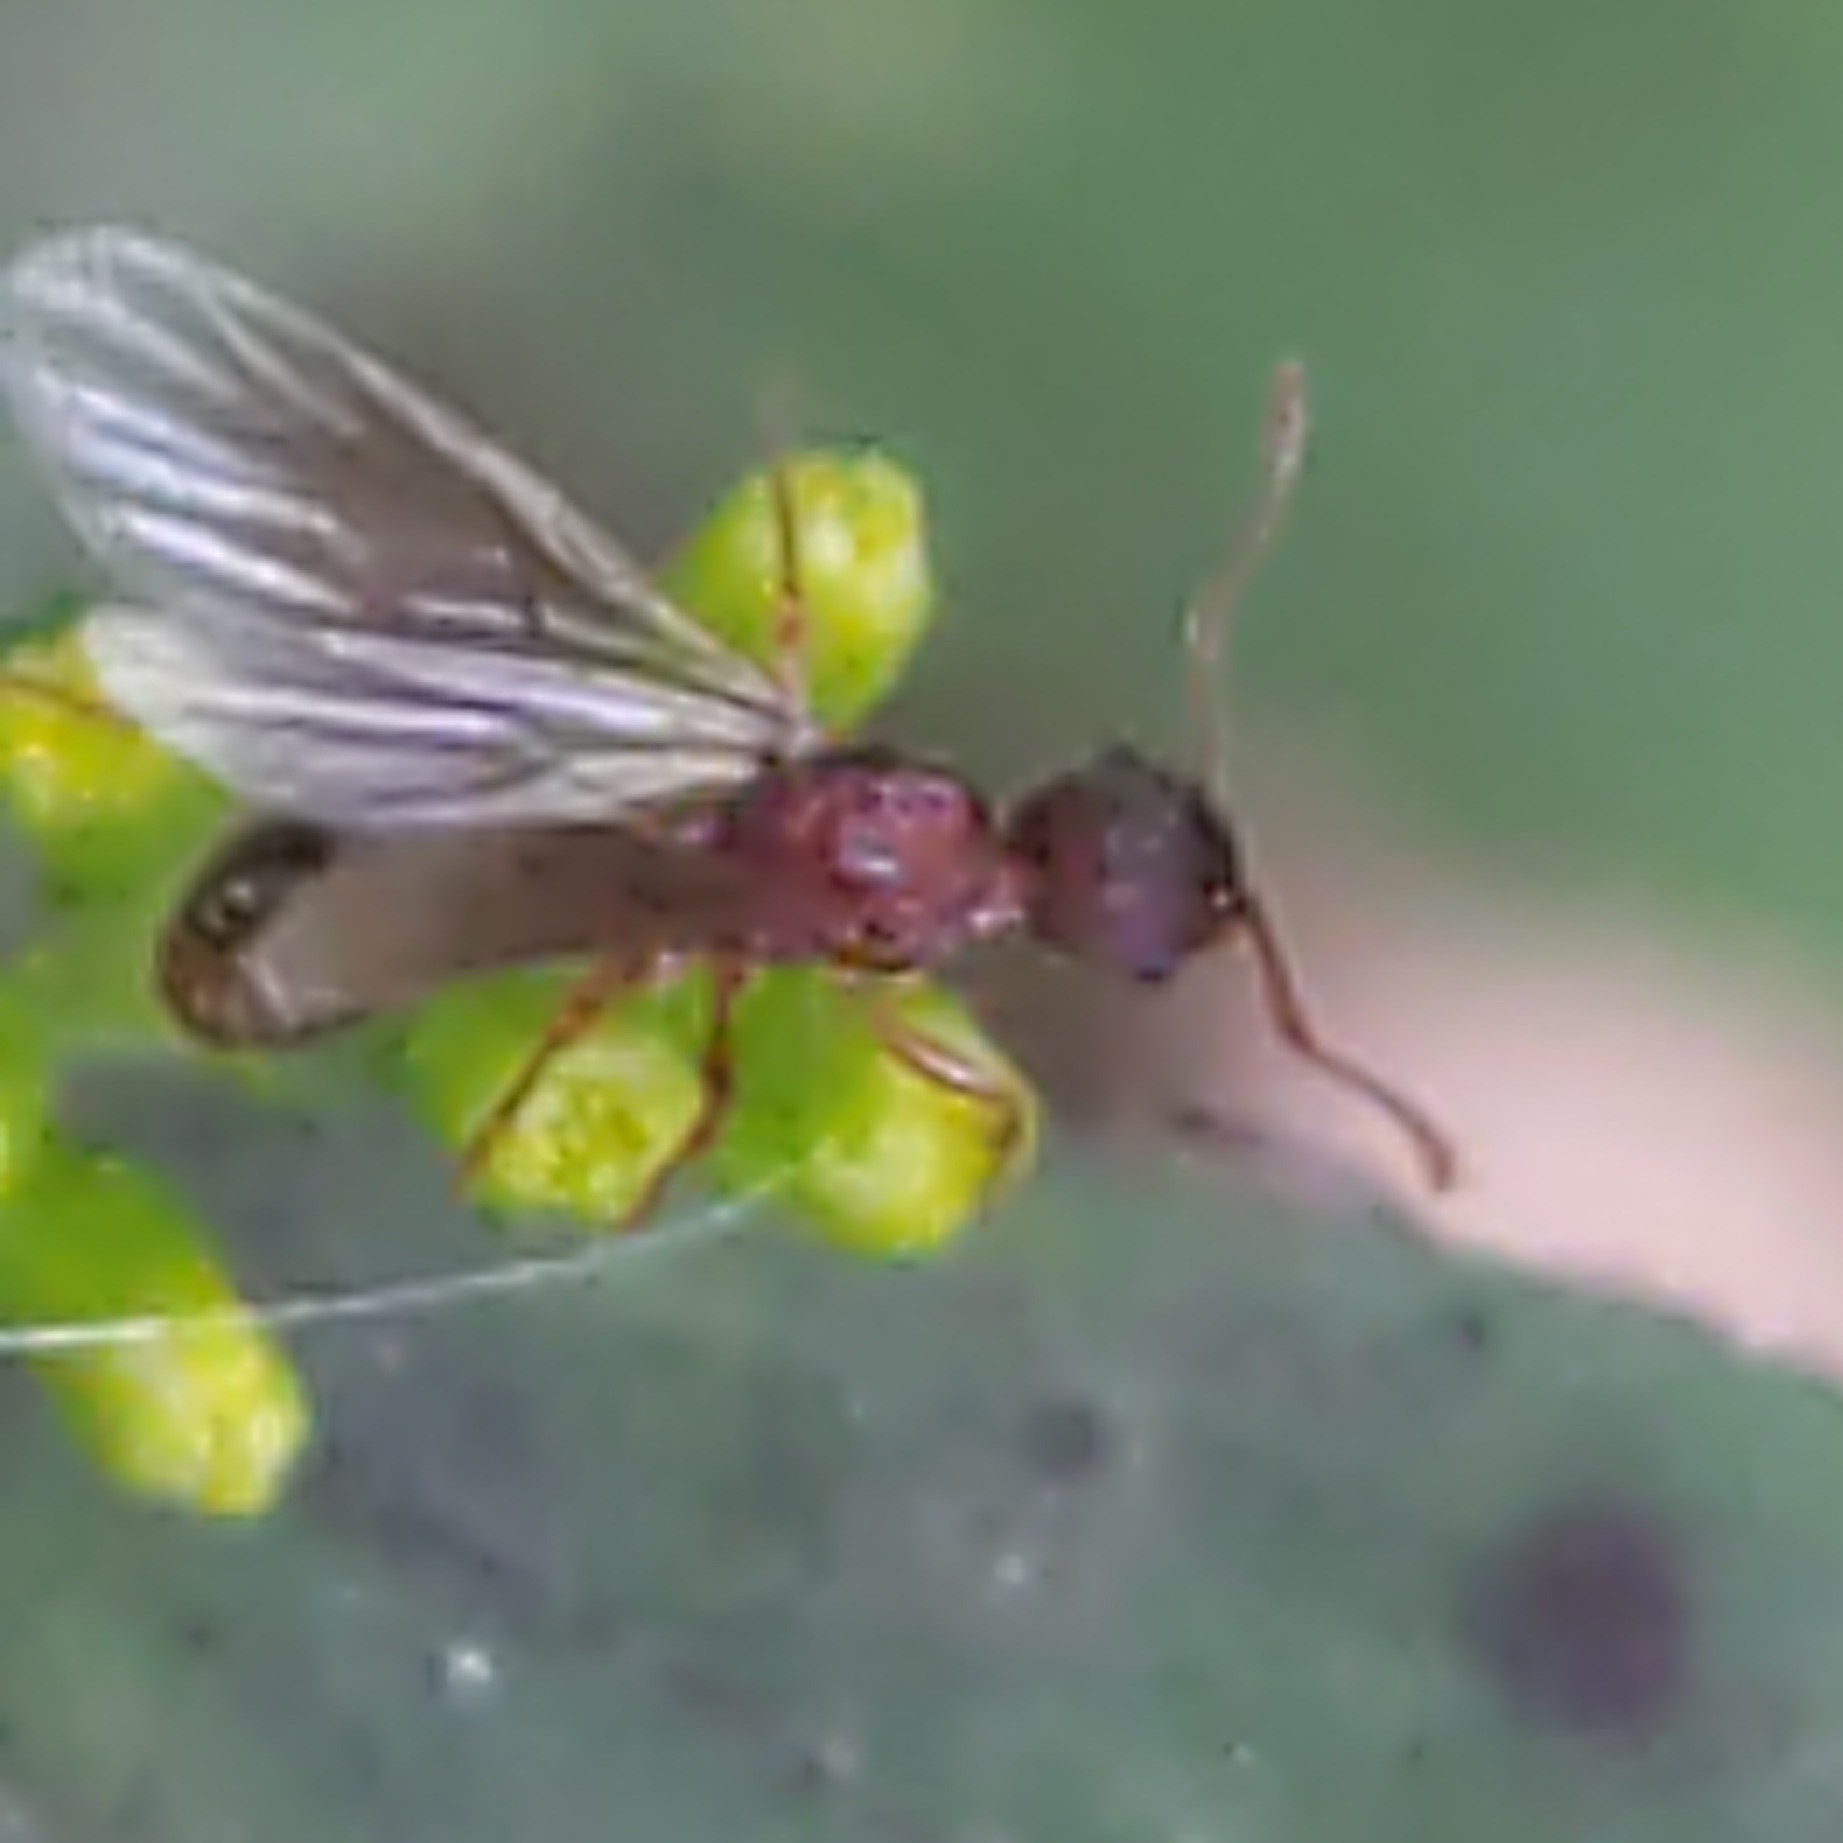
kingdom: Animalia
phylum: Arthropoda
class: Insecta
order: Hymenoptera
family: Formicidae
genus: Myrmica
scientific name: Myrmica
